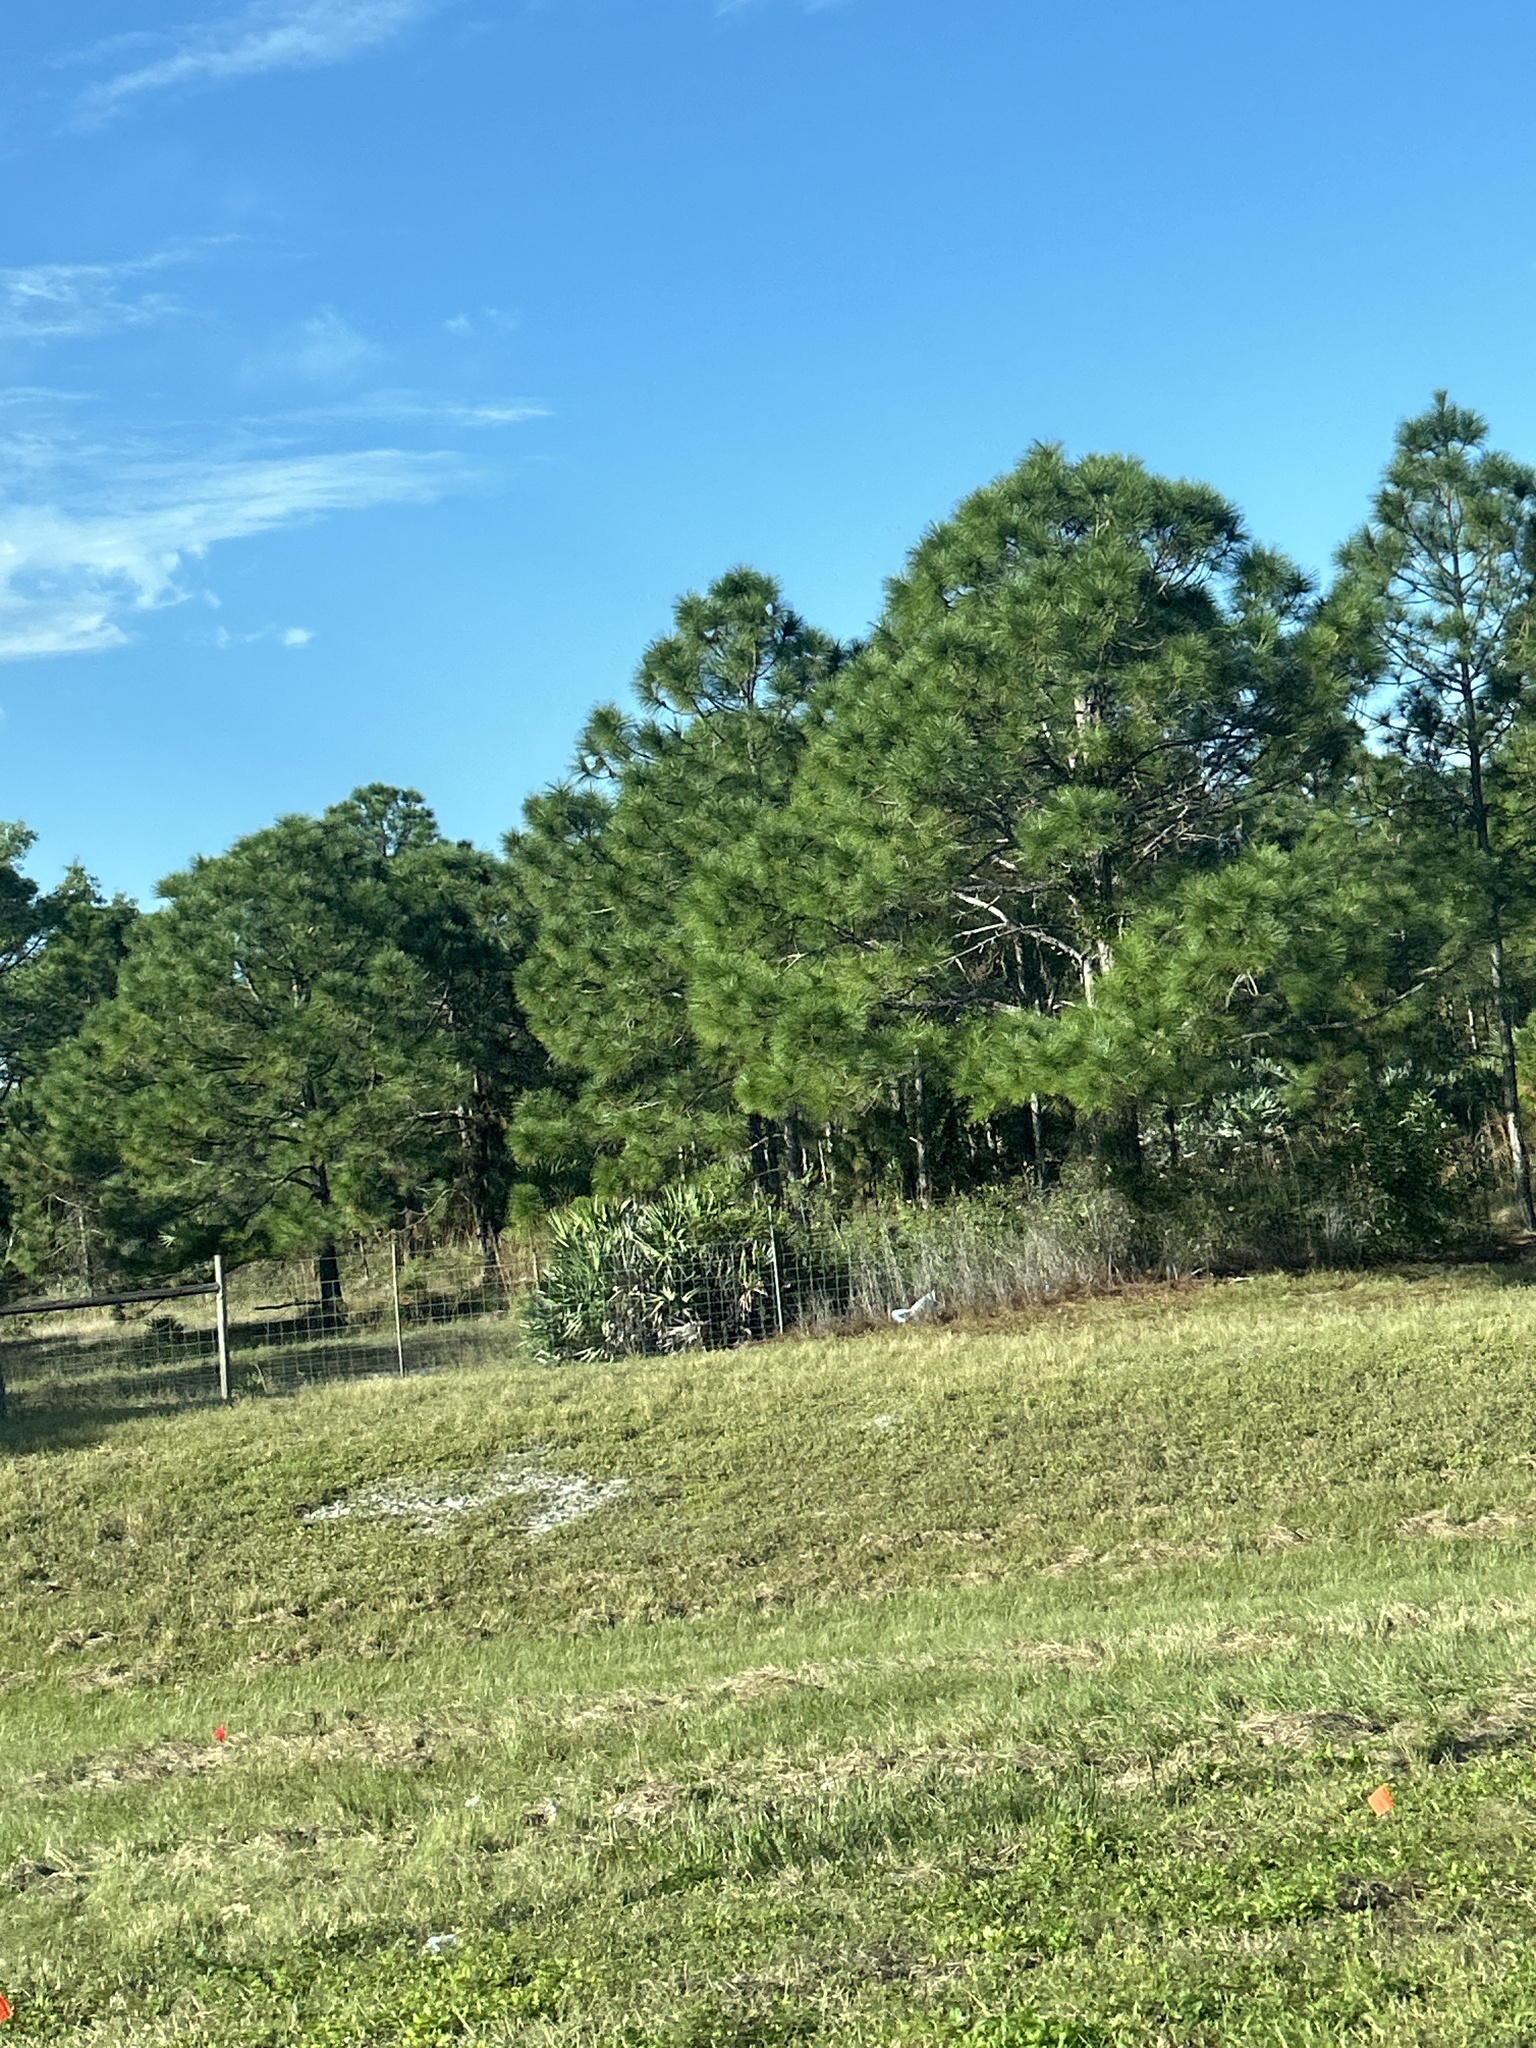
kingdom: Plantae
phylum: Tracheophyta
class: Pinopsida
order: Pinales
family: Pinaceae
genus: Pinus
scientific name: Pinus elliottii
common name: Slash pine
